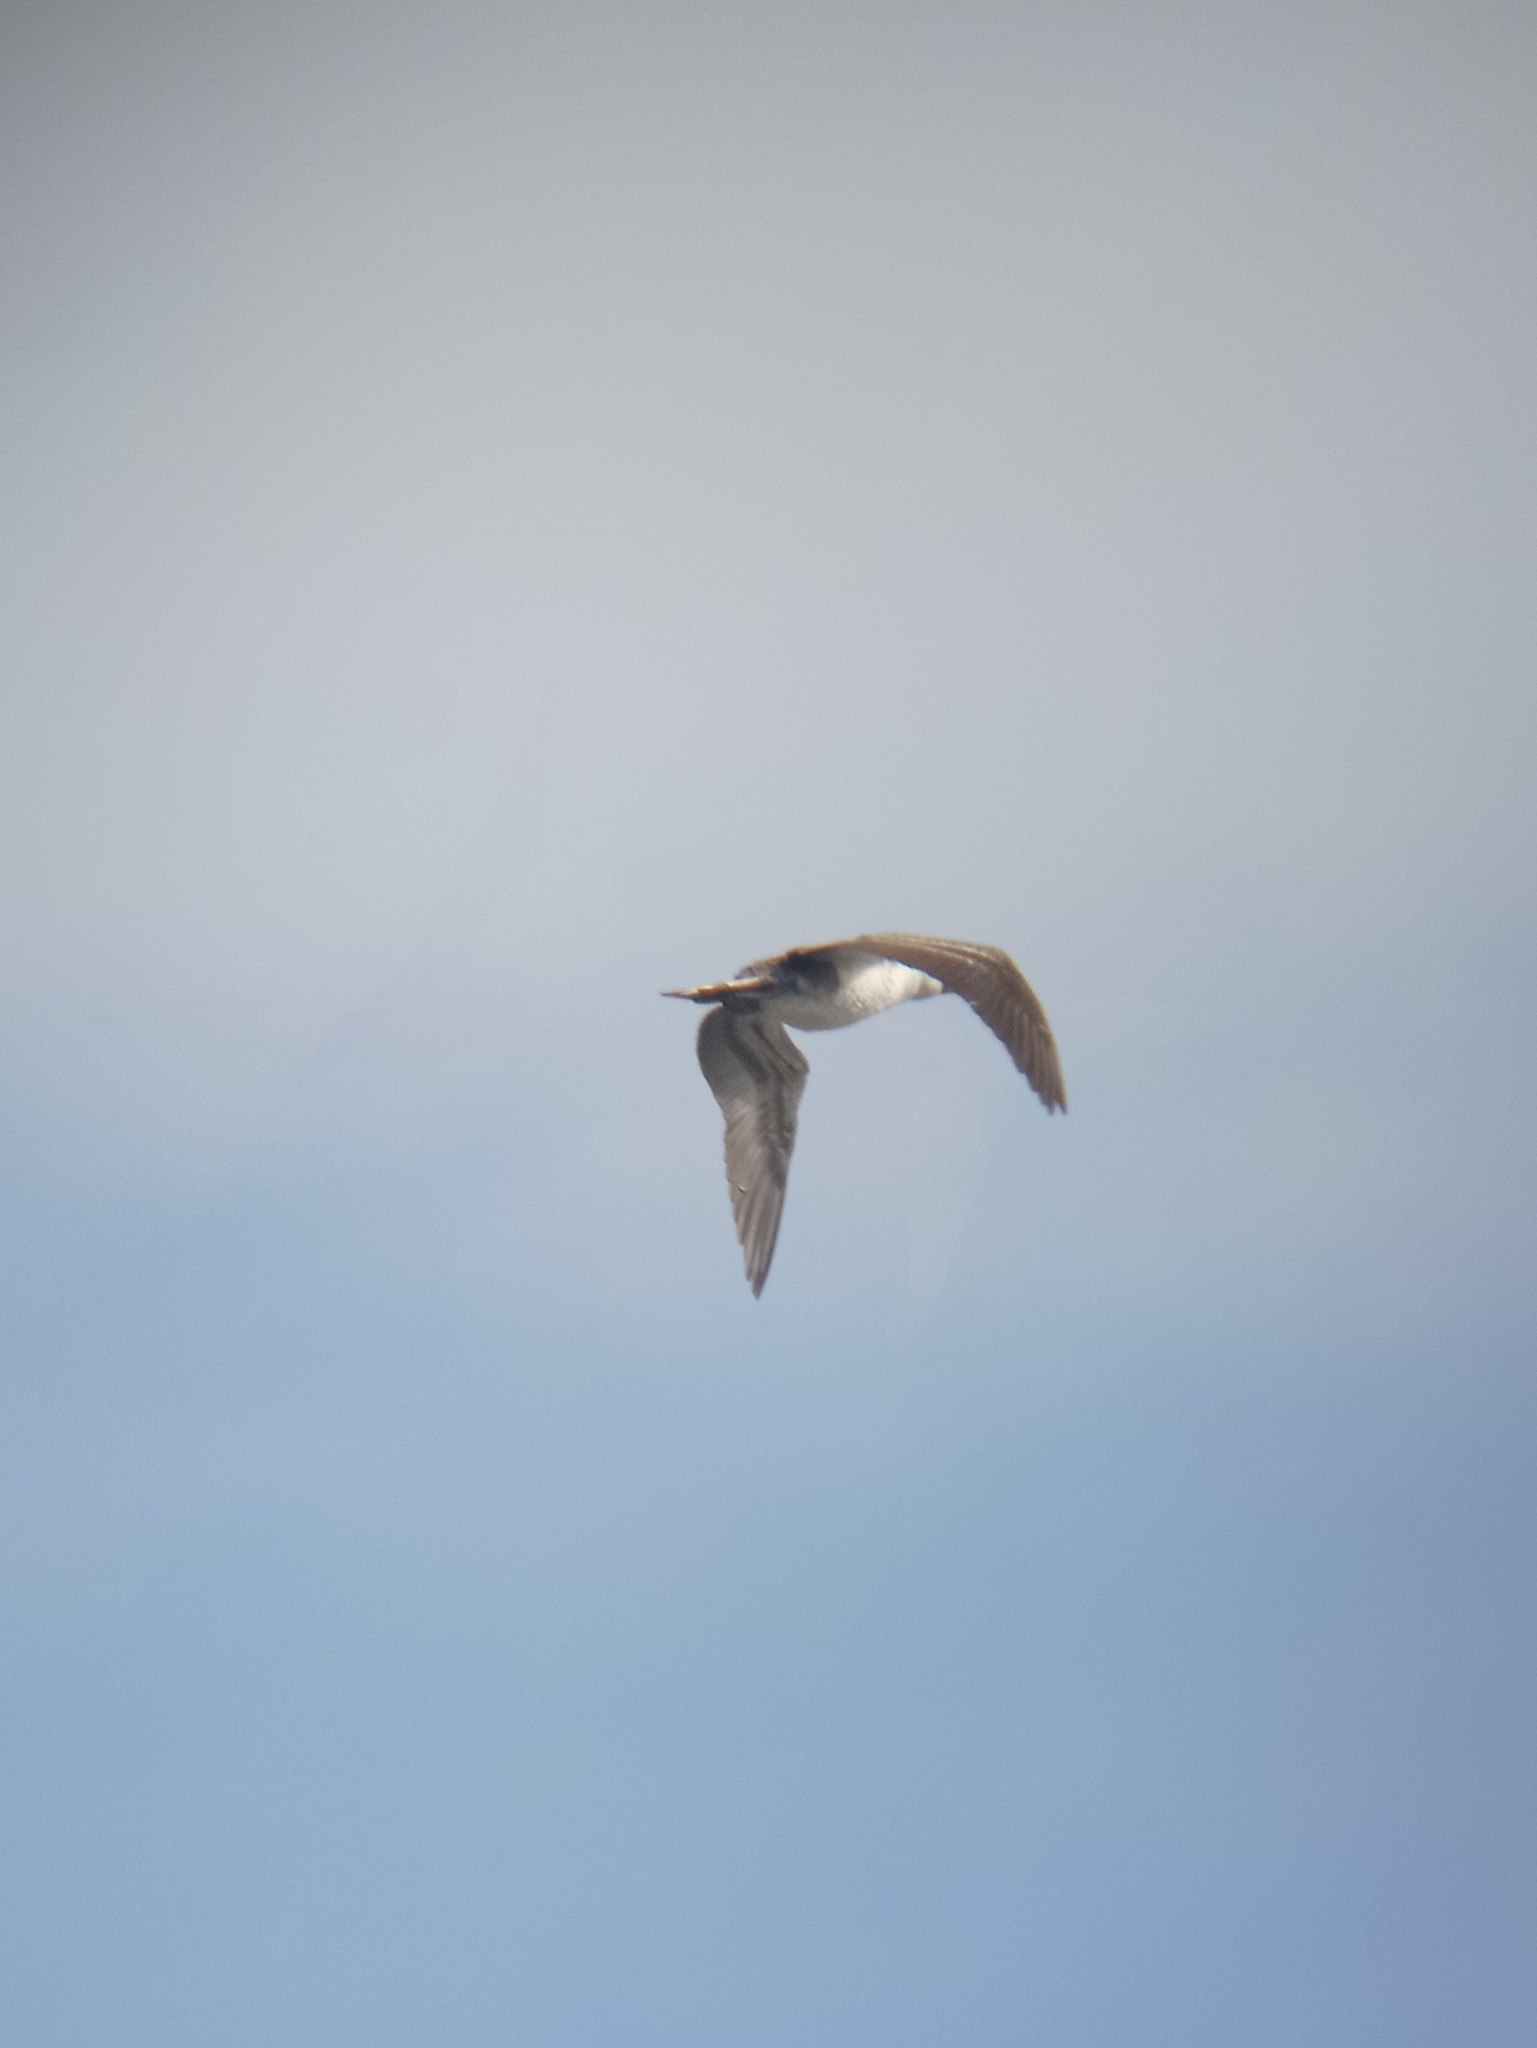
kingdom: Animalia
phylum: Chordata
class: Aves
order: Suliformes
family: Sulidae
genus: Sula
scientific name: Sula variegata
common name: Peruvian booby
